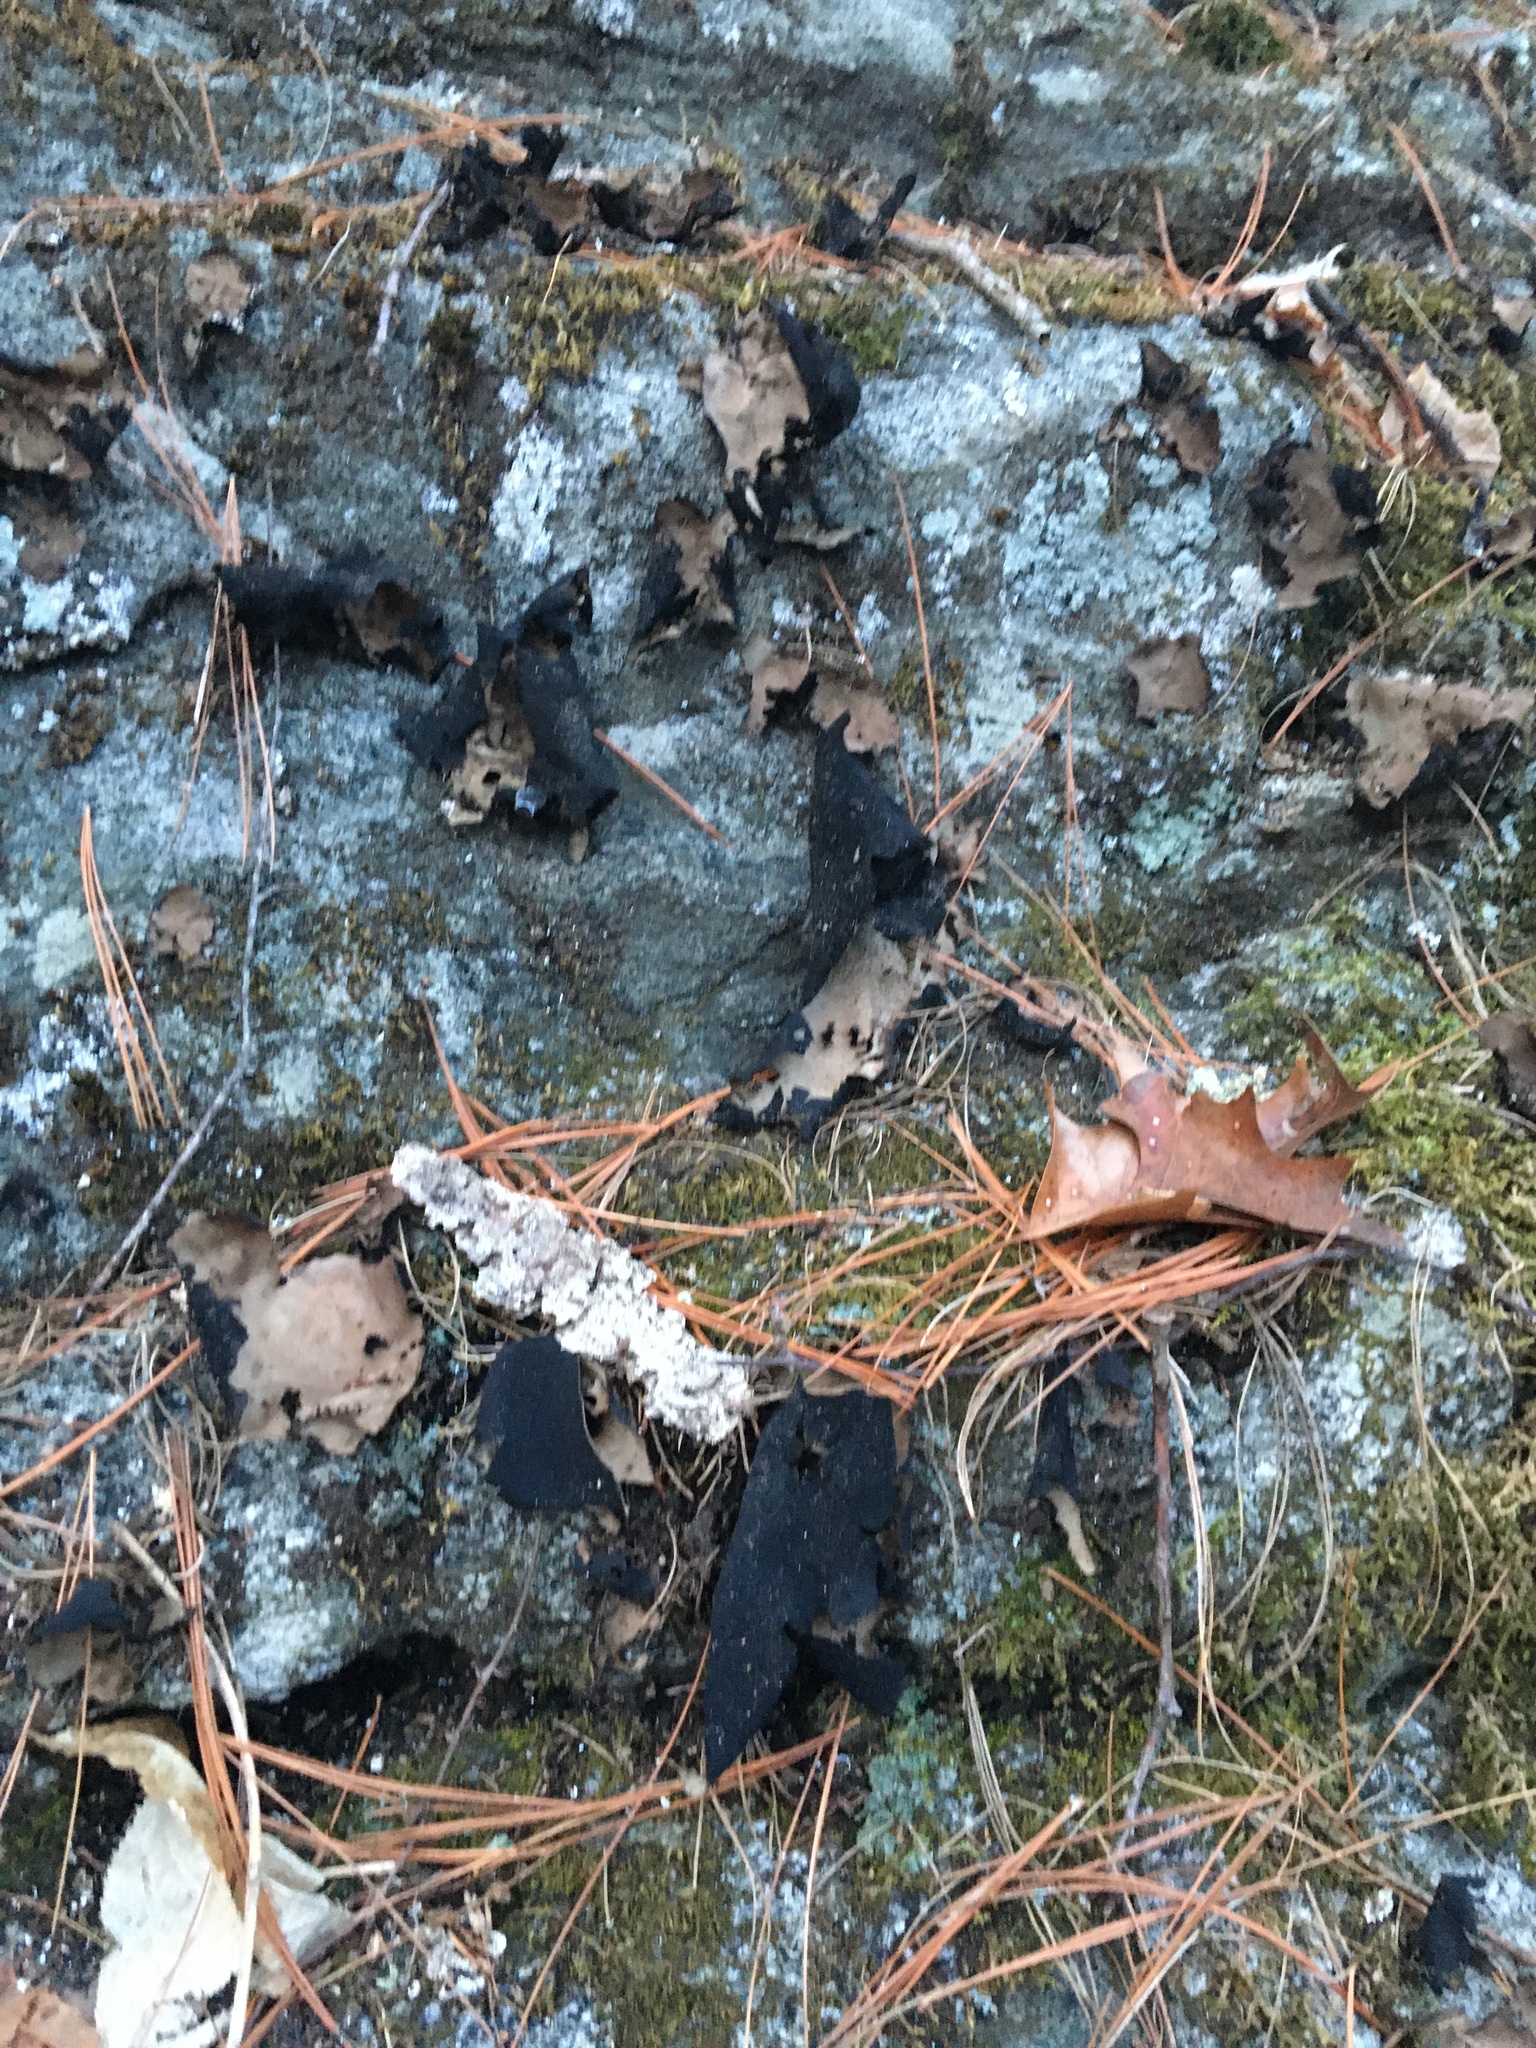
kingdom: Fungi
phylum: Ascomycota
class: Lecanoromycetes
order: Umbilicariales
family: Umbilicariaceae
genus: Umbilicaria
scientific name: Umbilicaria mammulata
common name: Smooth rock tripe
